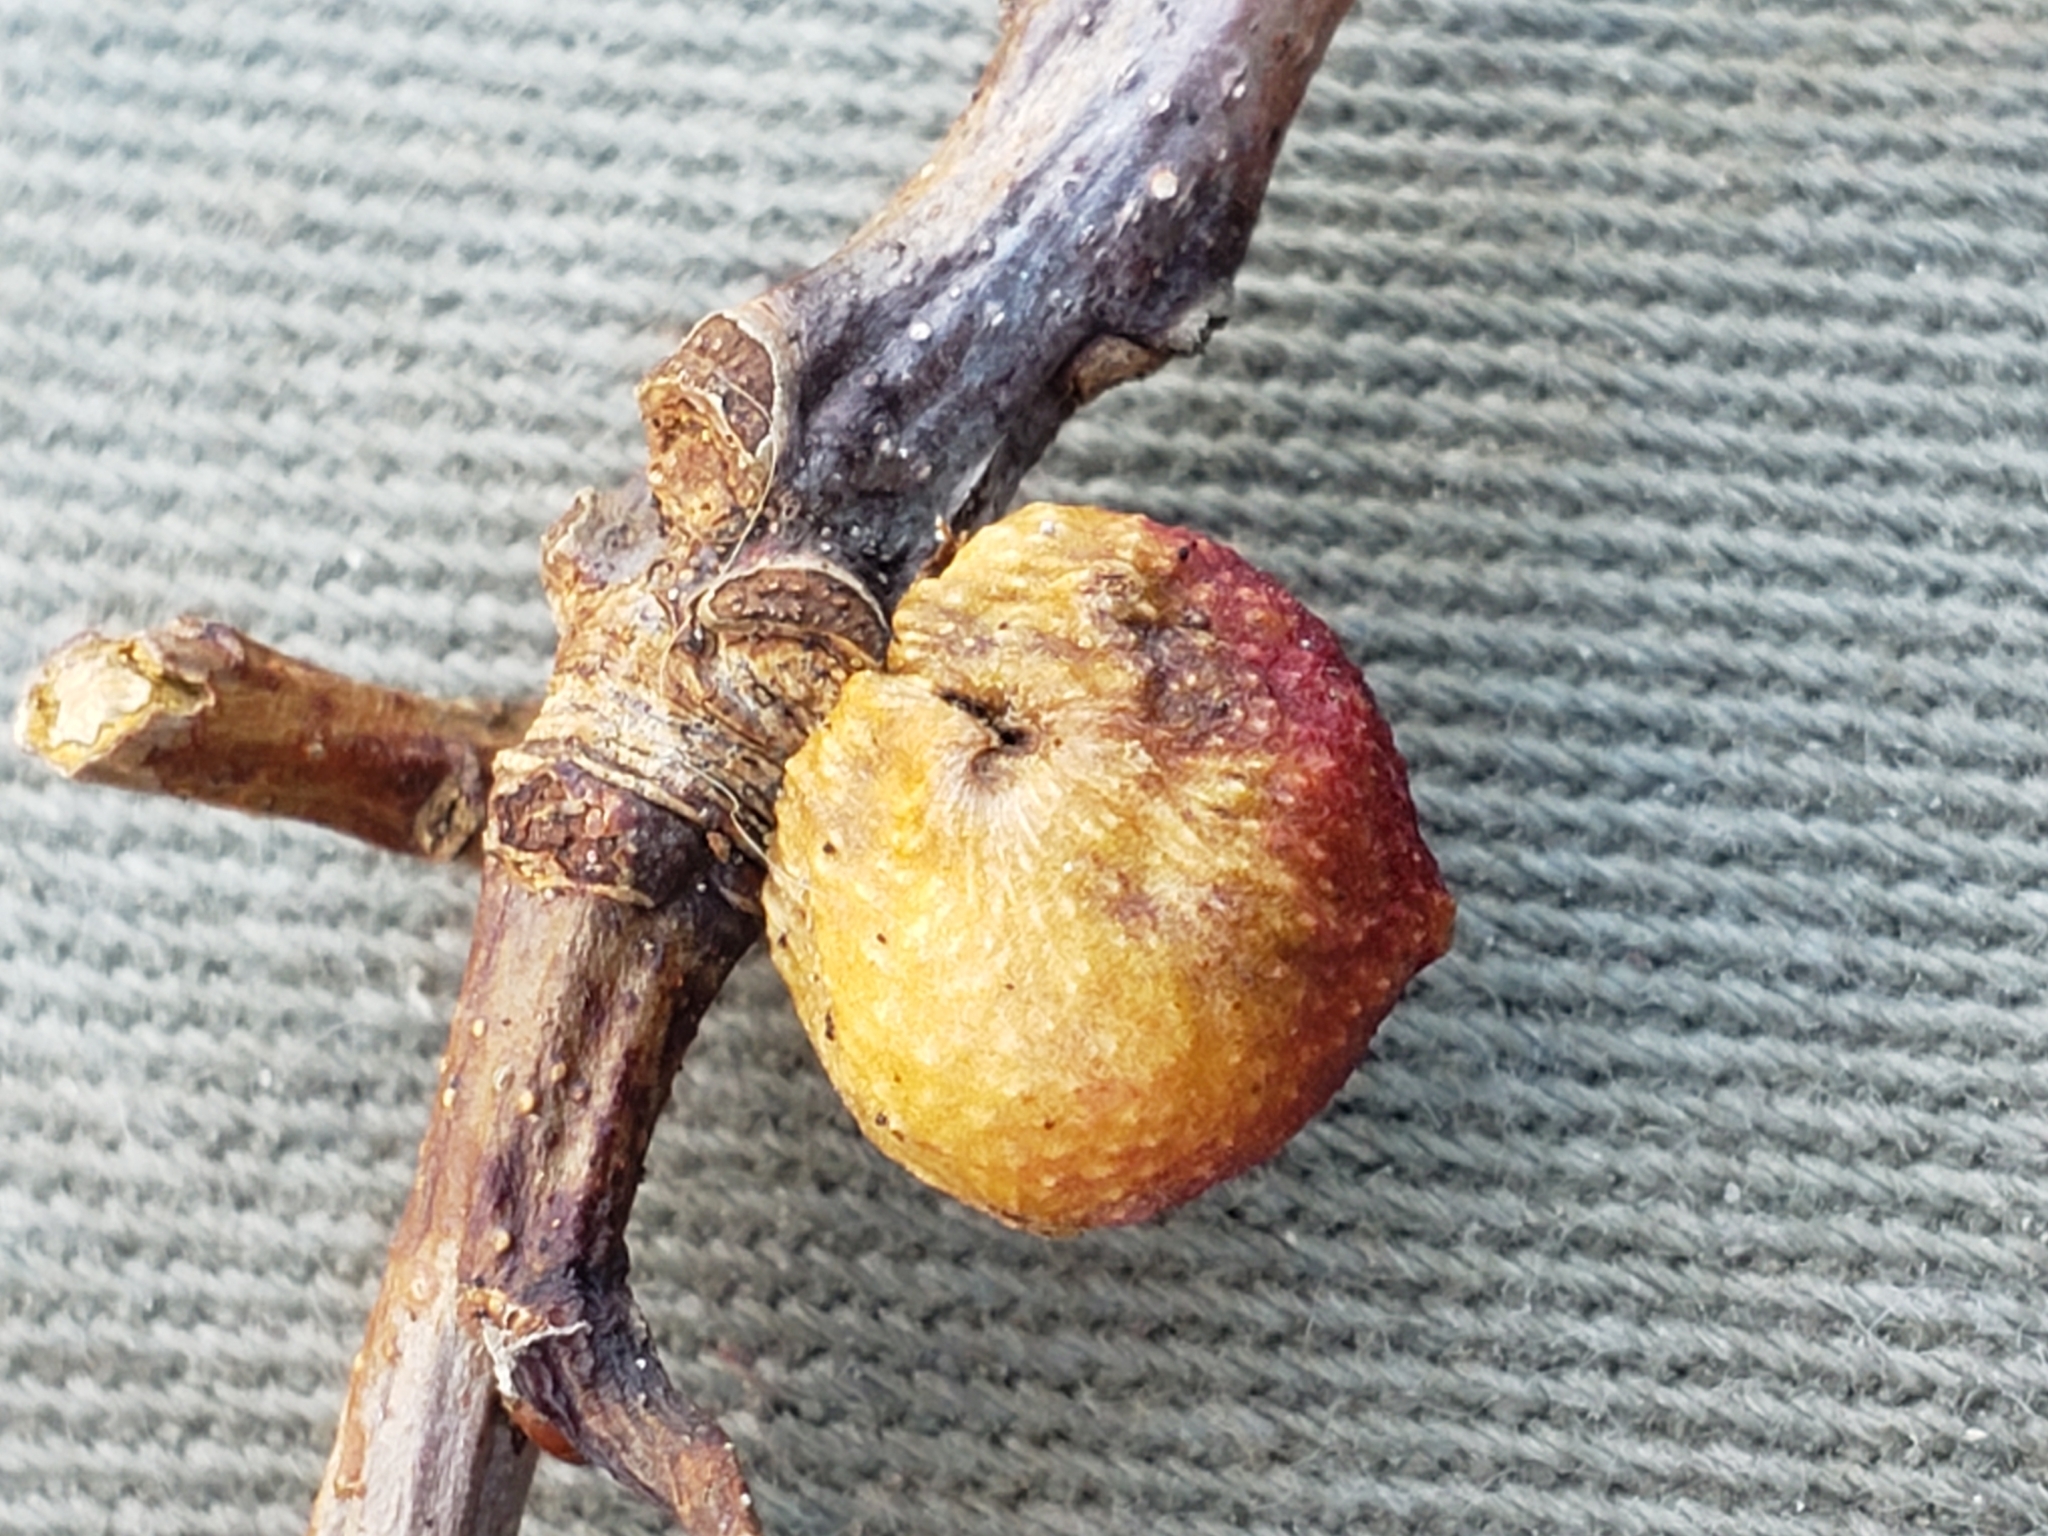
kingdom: Animalia
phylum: Arthropoda
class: Insecta
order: Hymenoptera
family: Cynipidae
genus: Disholcaspis
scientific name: Disholcaspis quercusglobulus
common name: Round bullet gall wasp
